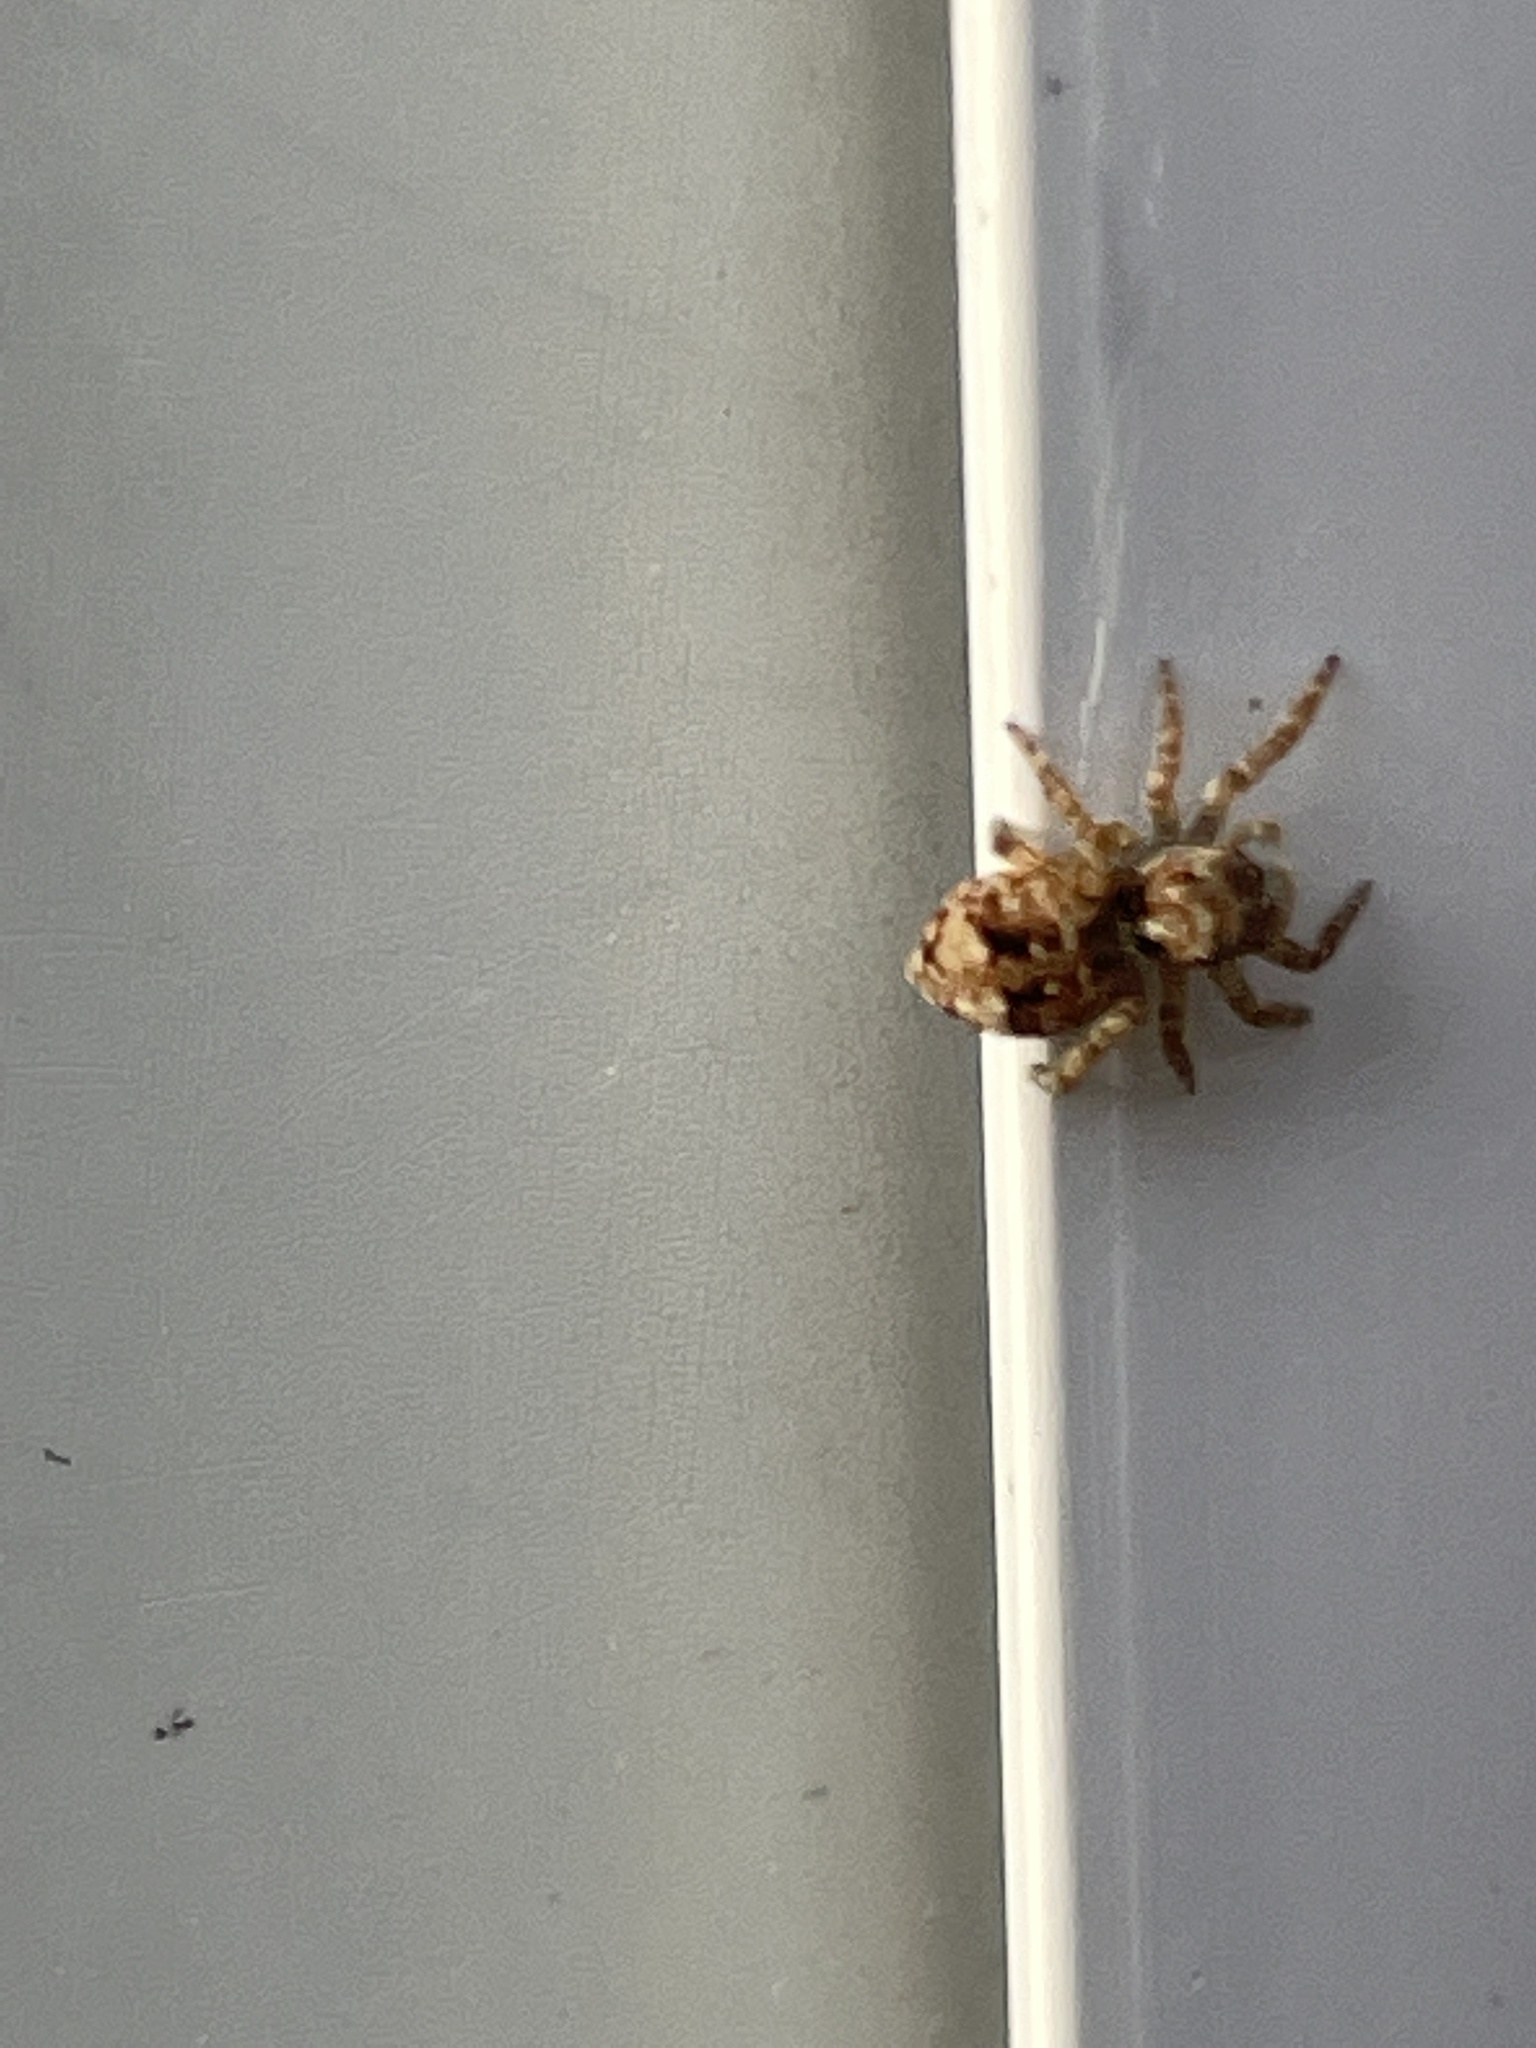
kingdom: Animalia
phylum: Arthropoda
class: Arachnida
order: Araneae
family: Salticidae
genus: Attulus
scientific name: Attulus fasciger
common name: Asiatic wall jumping spider
